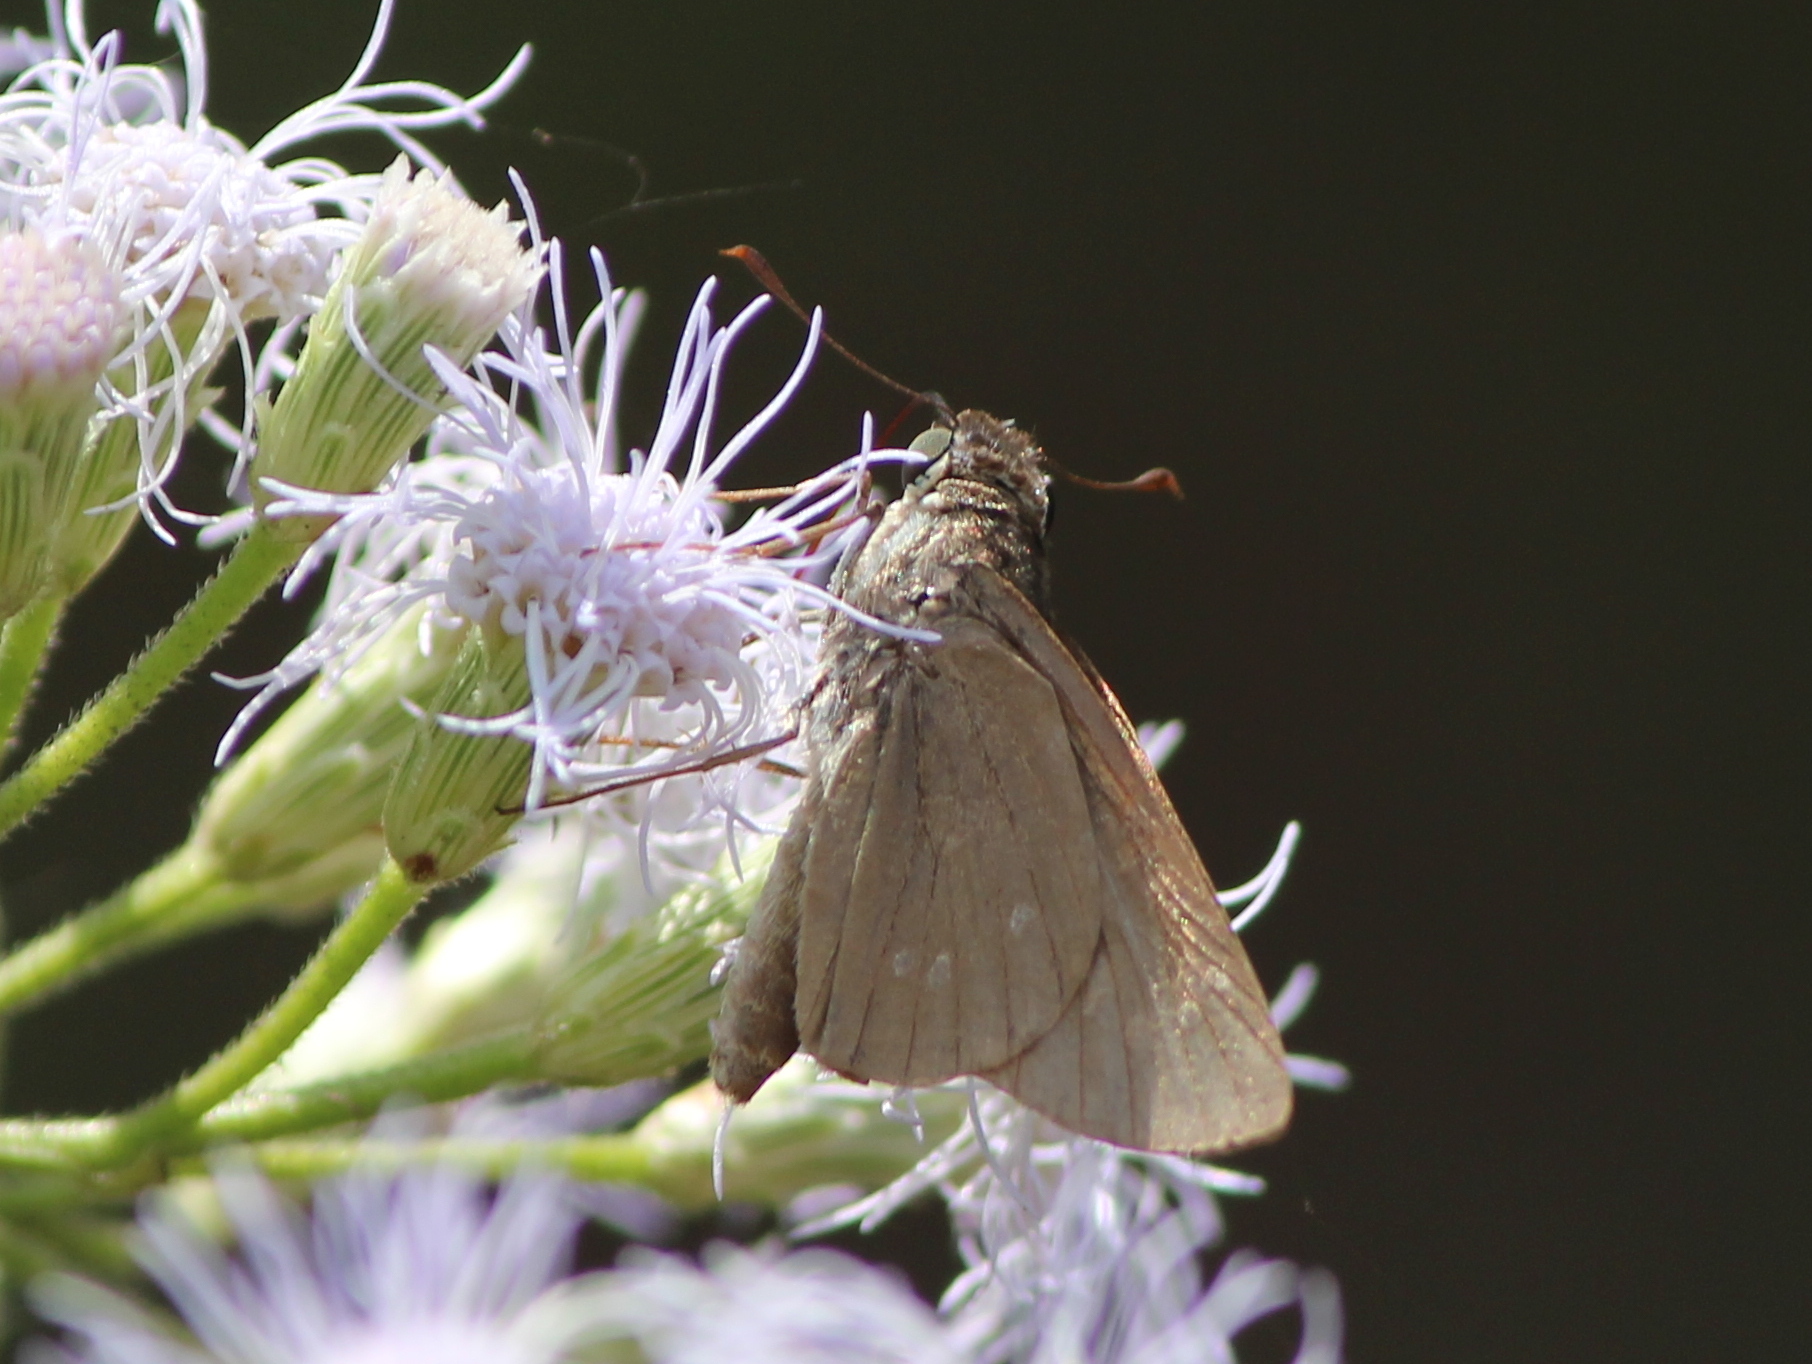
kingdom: Animalia
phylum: Arthropoda
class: Insecta
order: Lepidoptera
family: Hesperiidae
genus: Borbo
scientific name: Borbo cinnara
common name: Formosan swift
